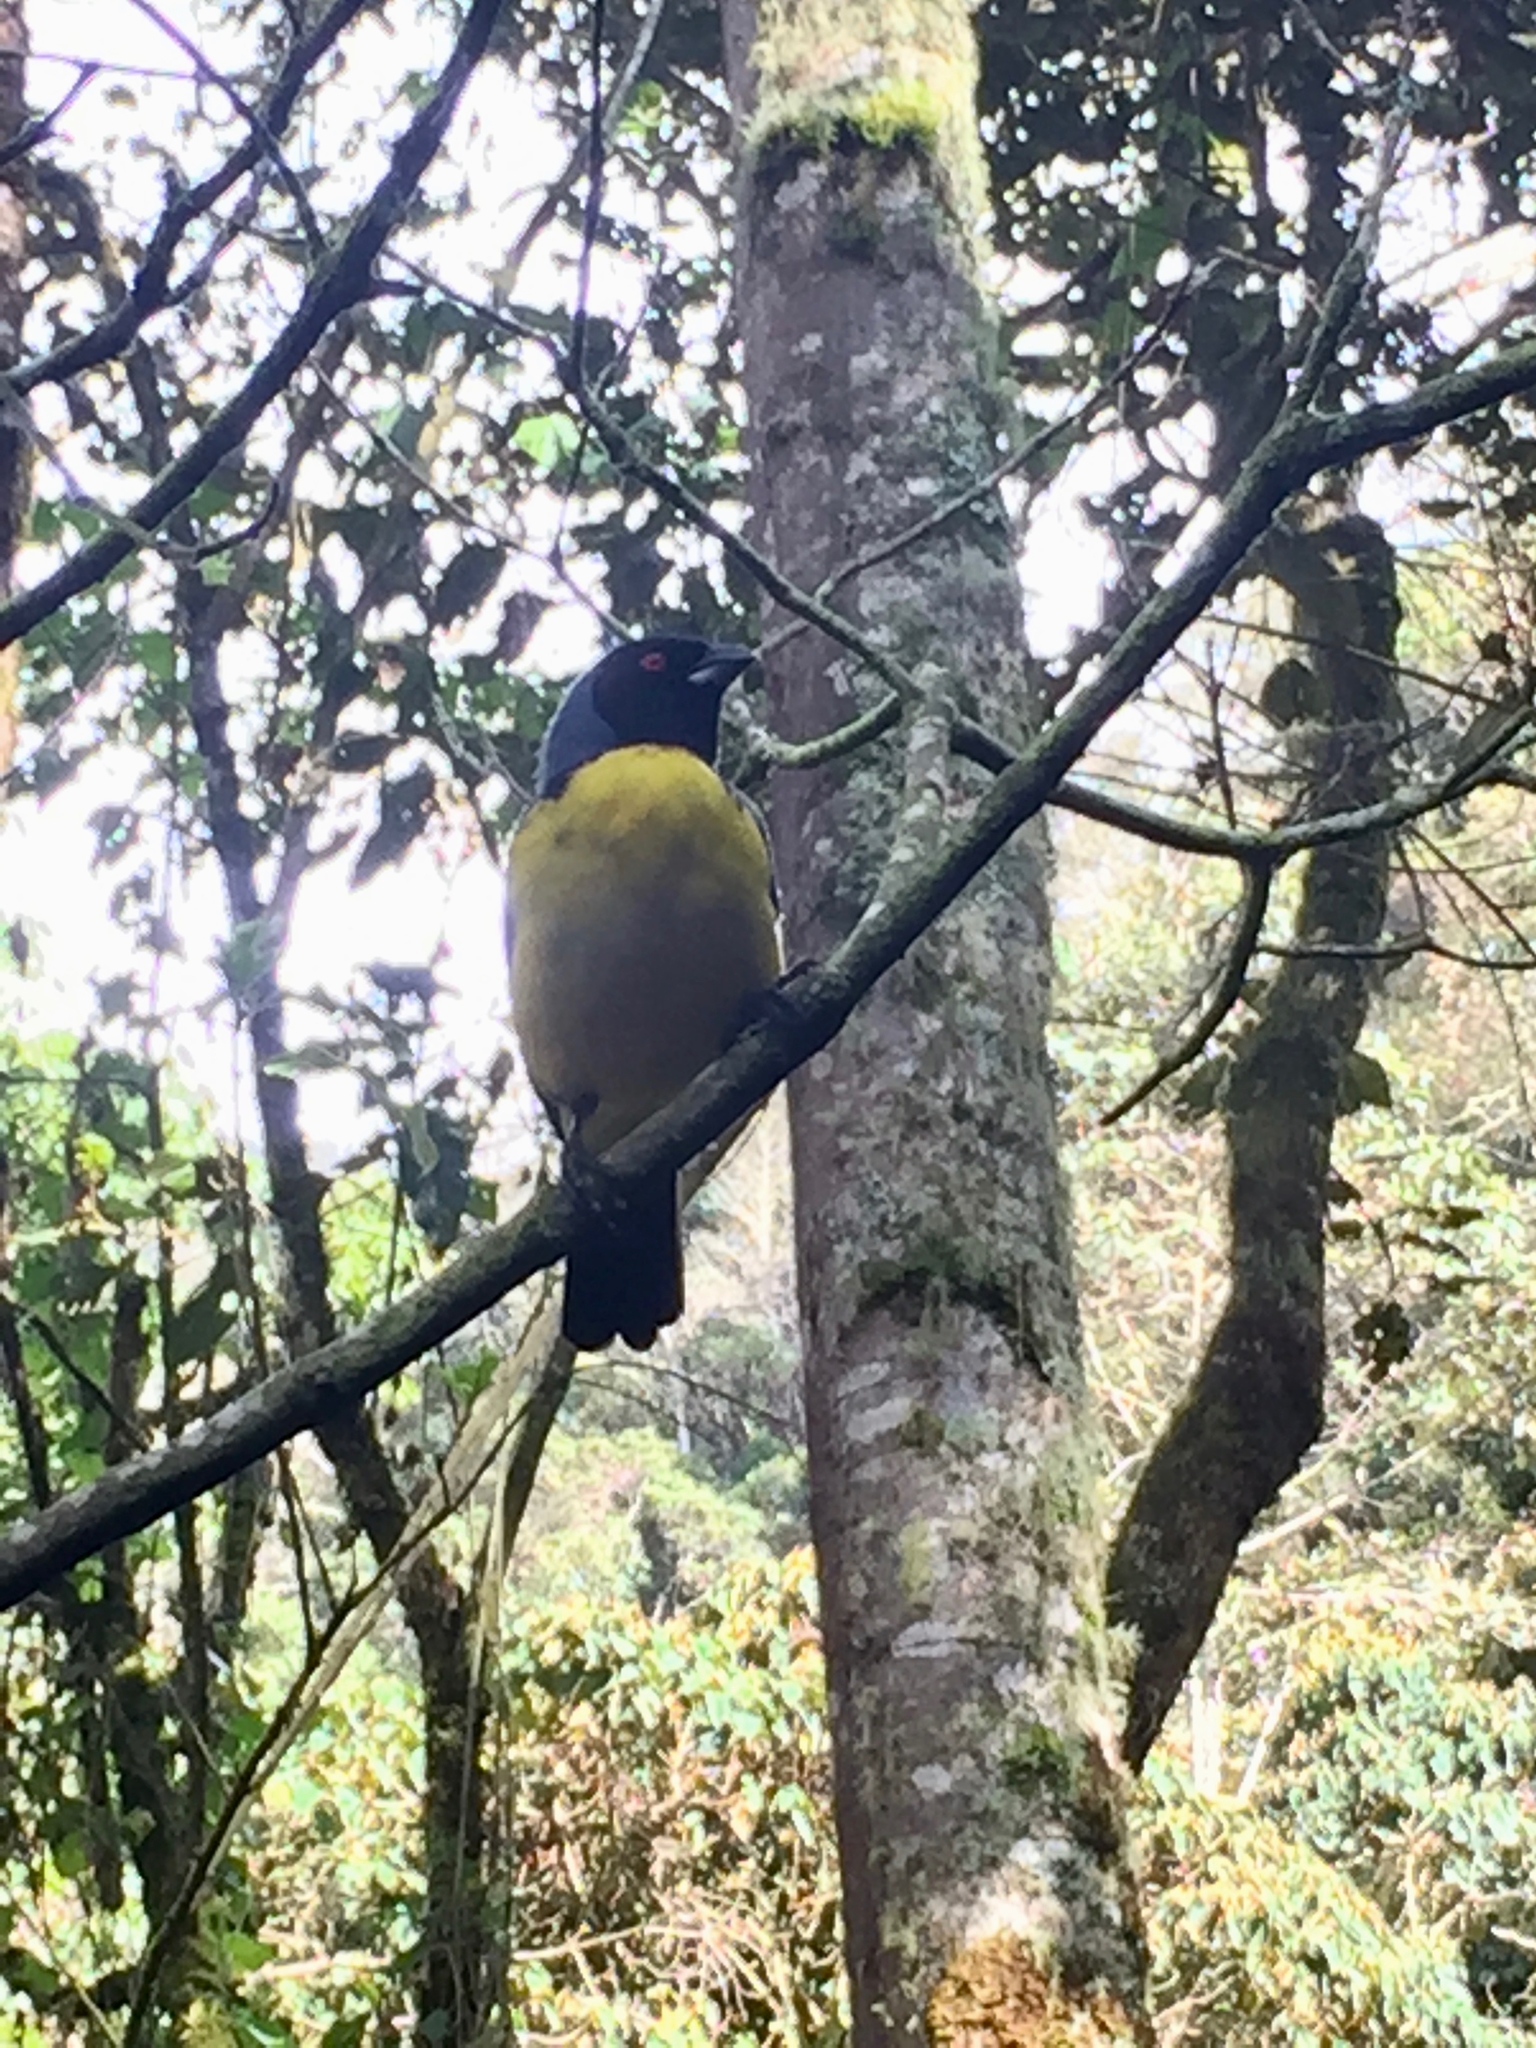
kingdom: Animalia
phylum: Chordata
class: Aves
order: Passeriformes
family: Thraupidae
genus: Buthraupis
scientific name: Buthraupis montana
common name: Hooded mountain tanager
